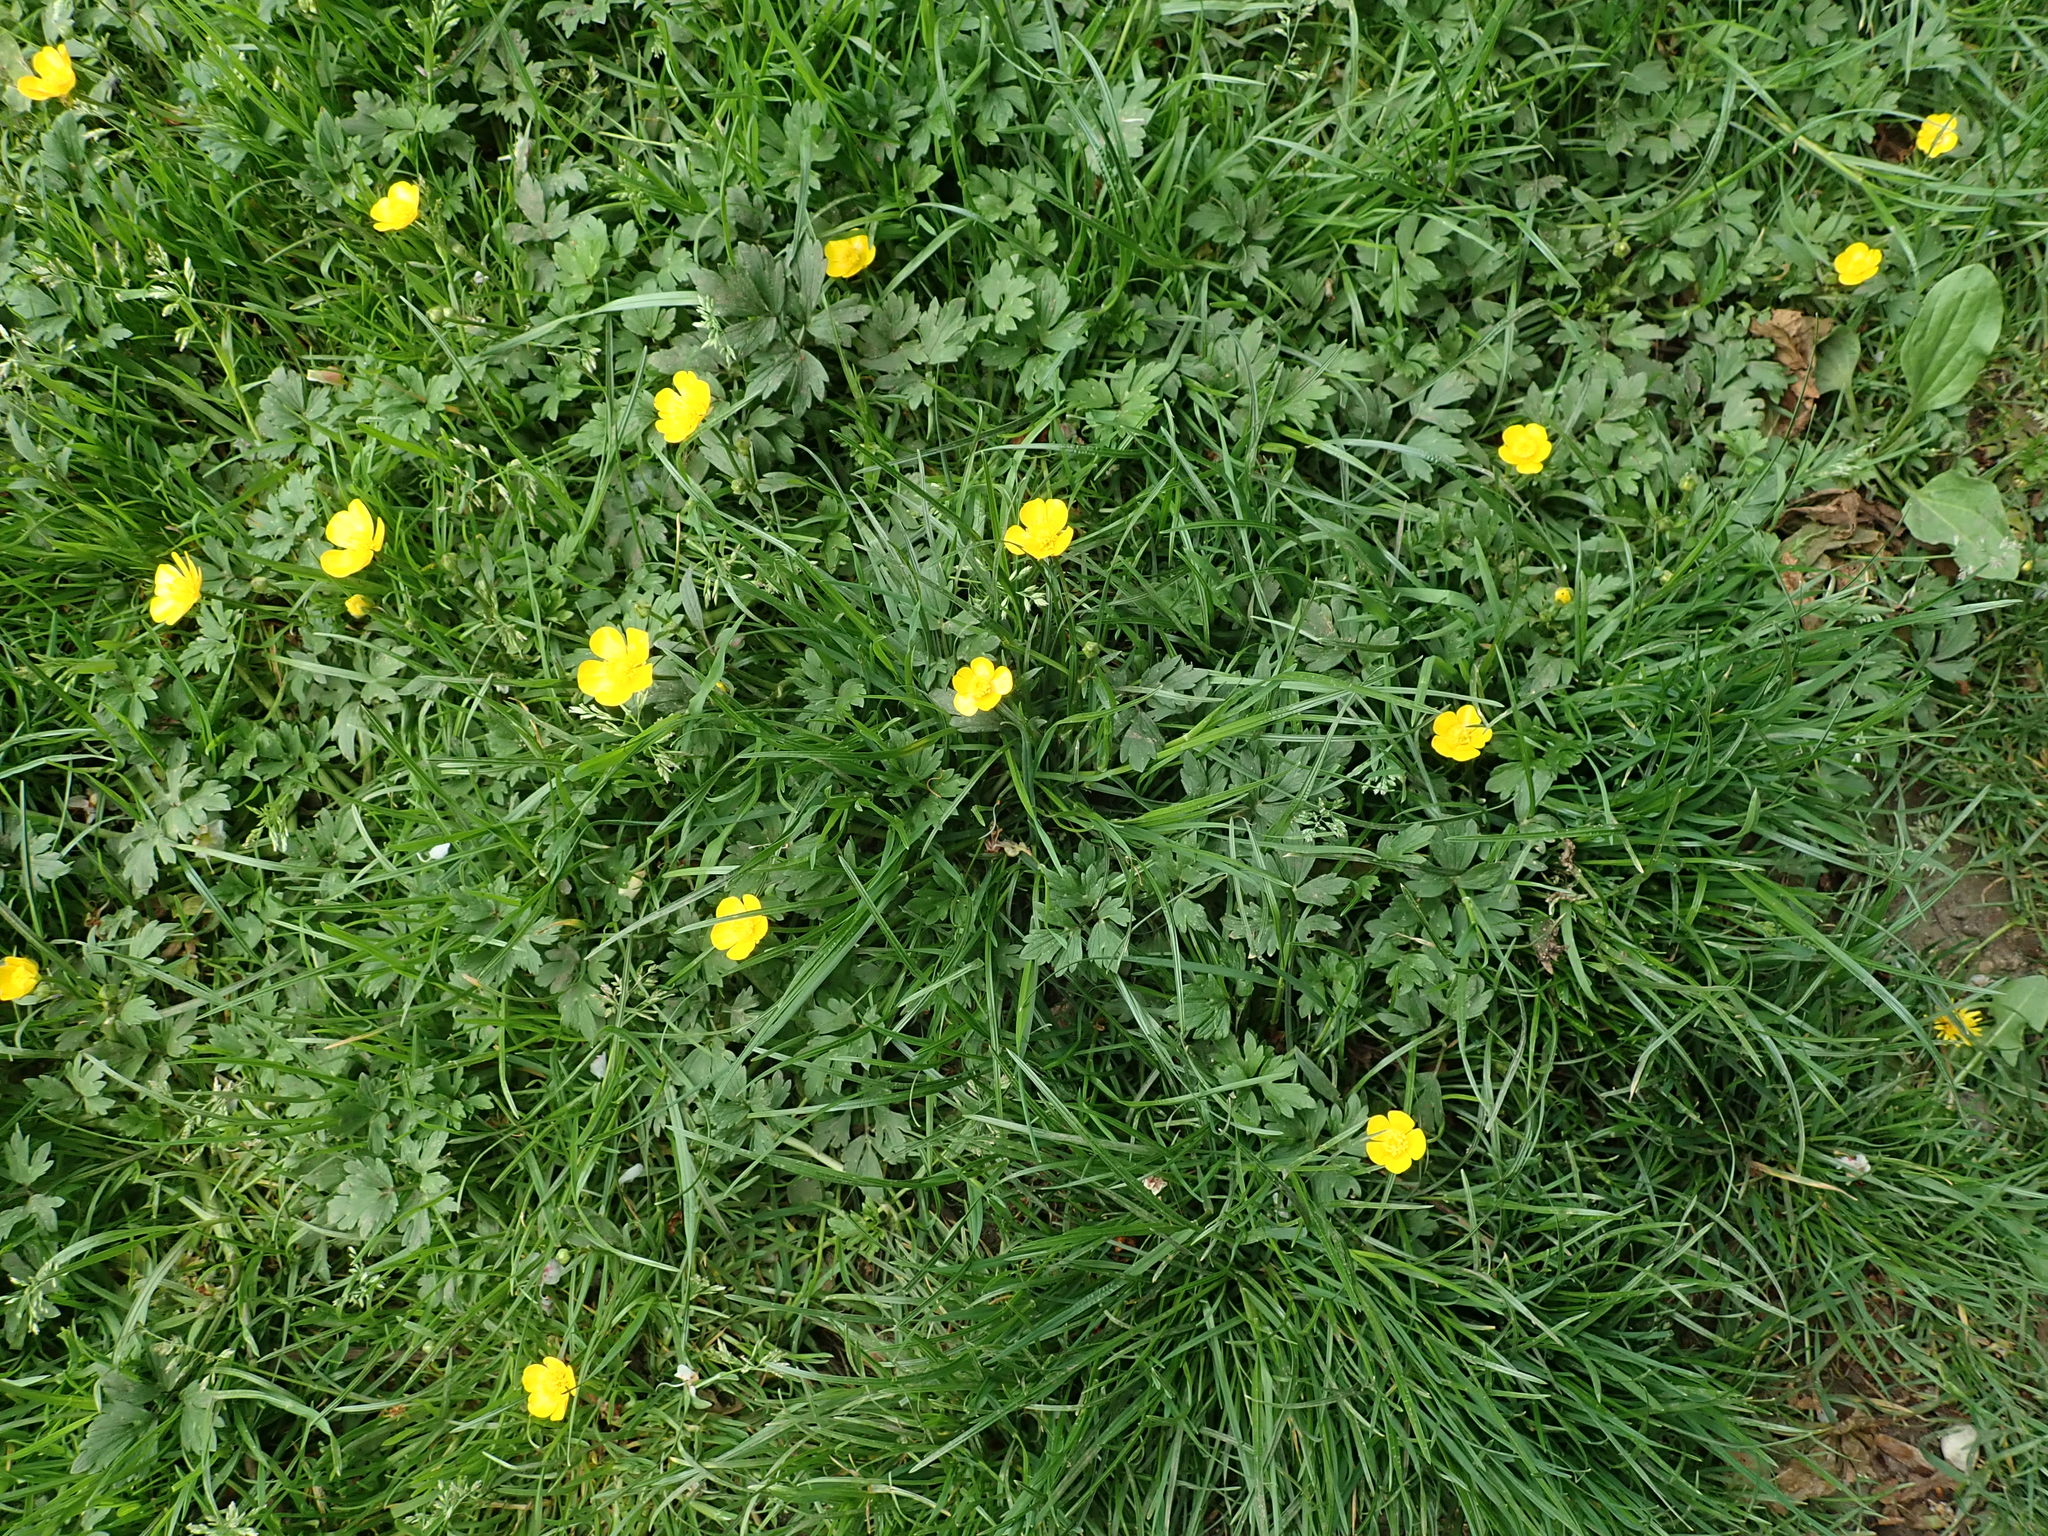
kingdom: Plantae
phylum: Tracheophyta
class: Magnoliopsida
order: Ranunculales
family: Ranunculaceae
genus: Ranunculus
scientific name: Ranunculus repens
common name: Creeping buttercup
